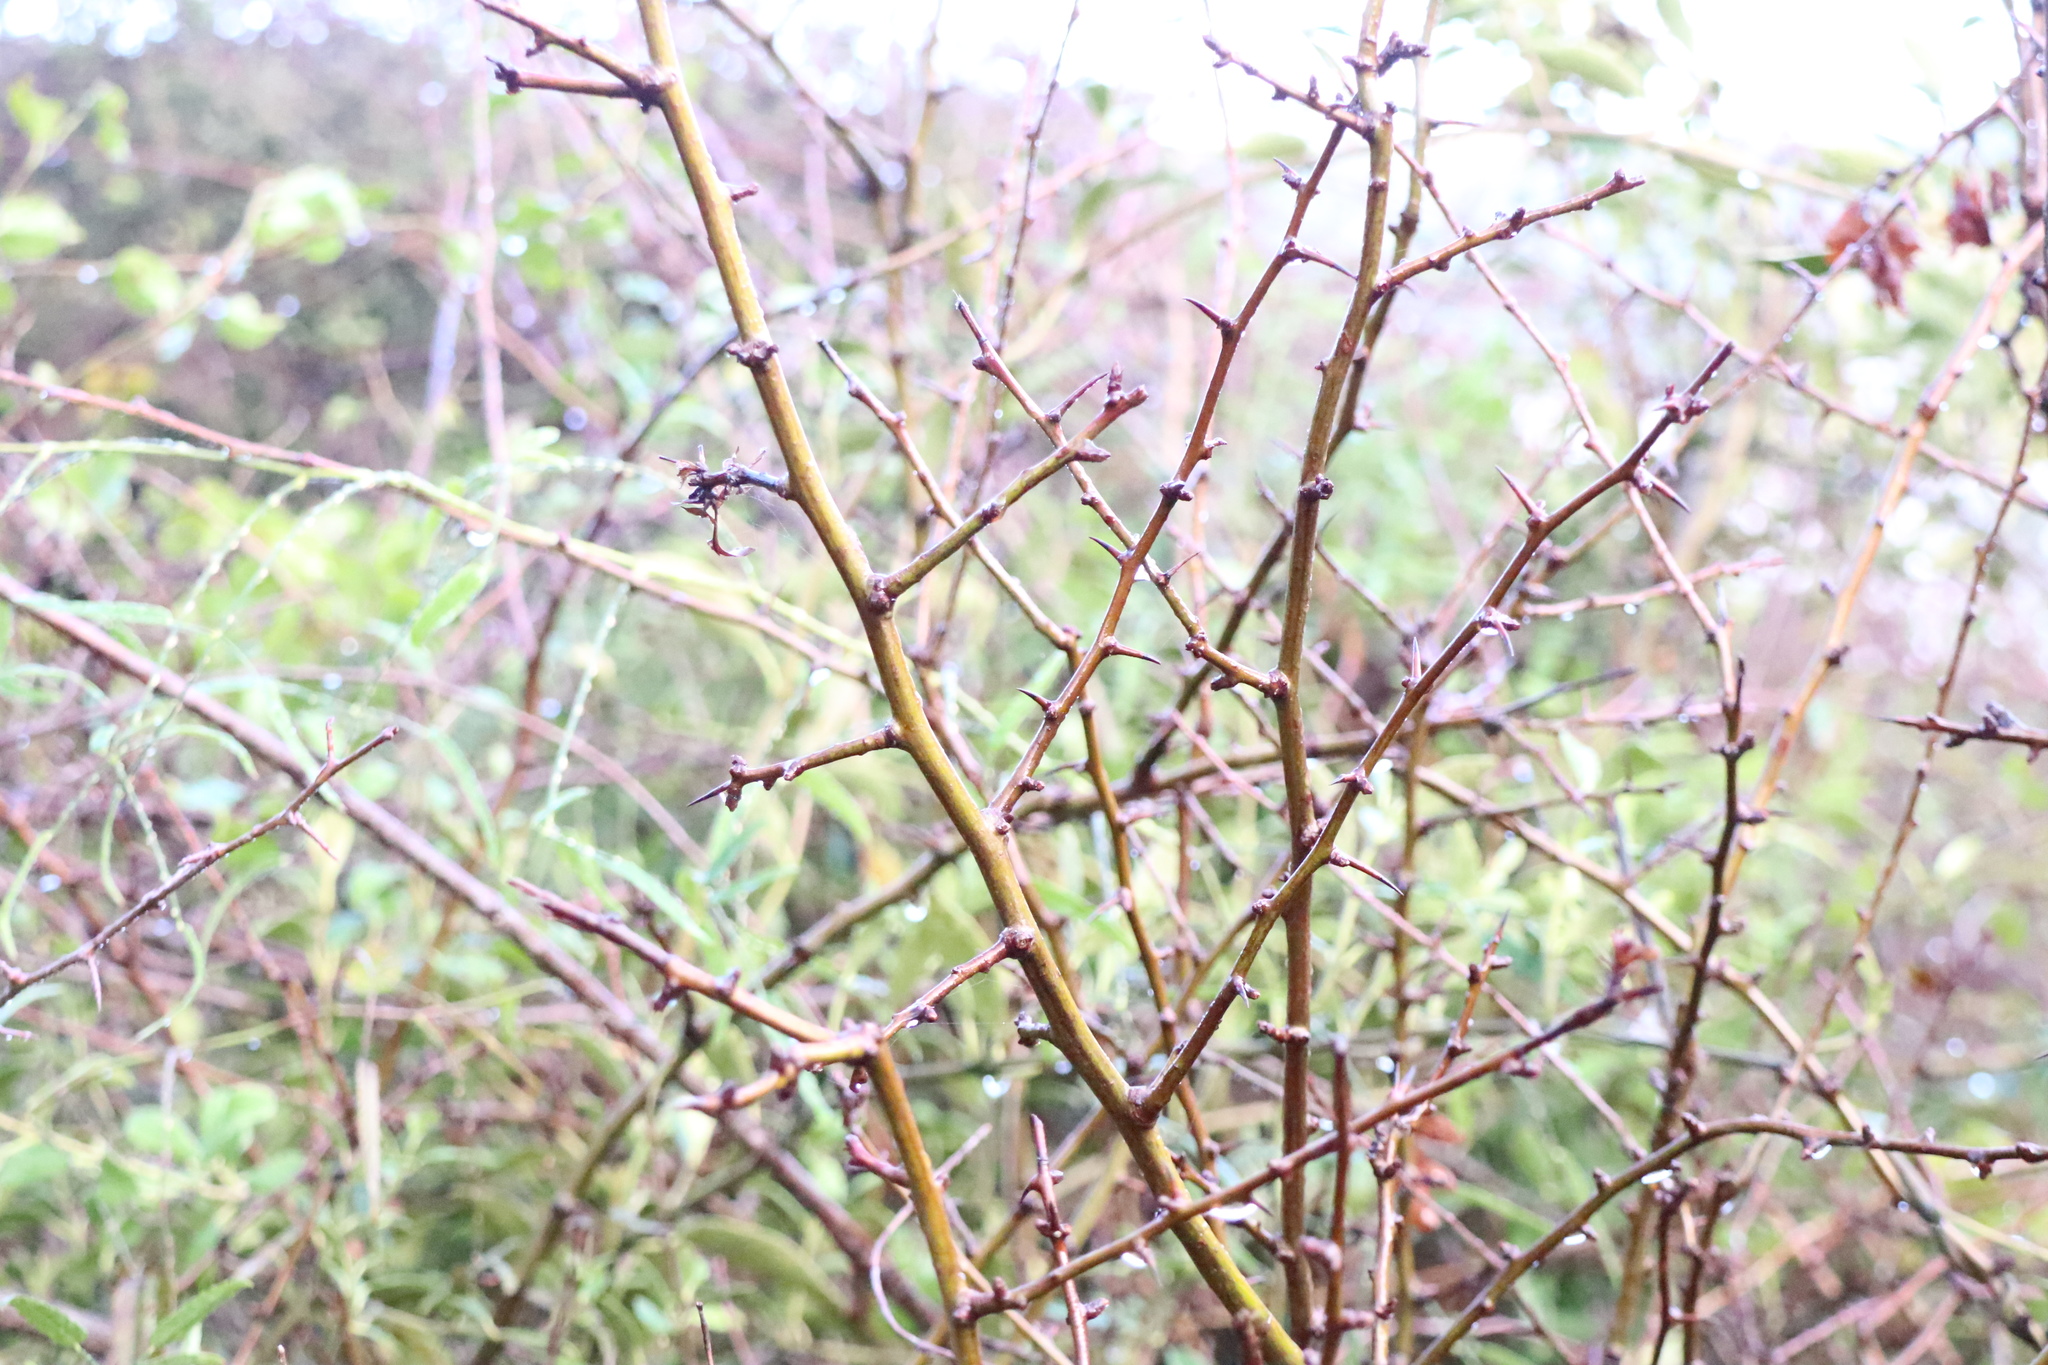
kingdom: Plantae
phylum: Tracheophyta
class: Magnoliopsida
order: Rosales
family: Rosaceae
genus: Crataegus
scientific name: Crataegus monogyna
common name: Hawthorn
